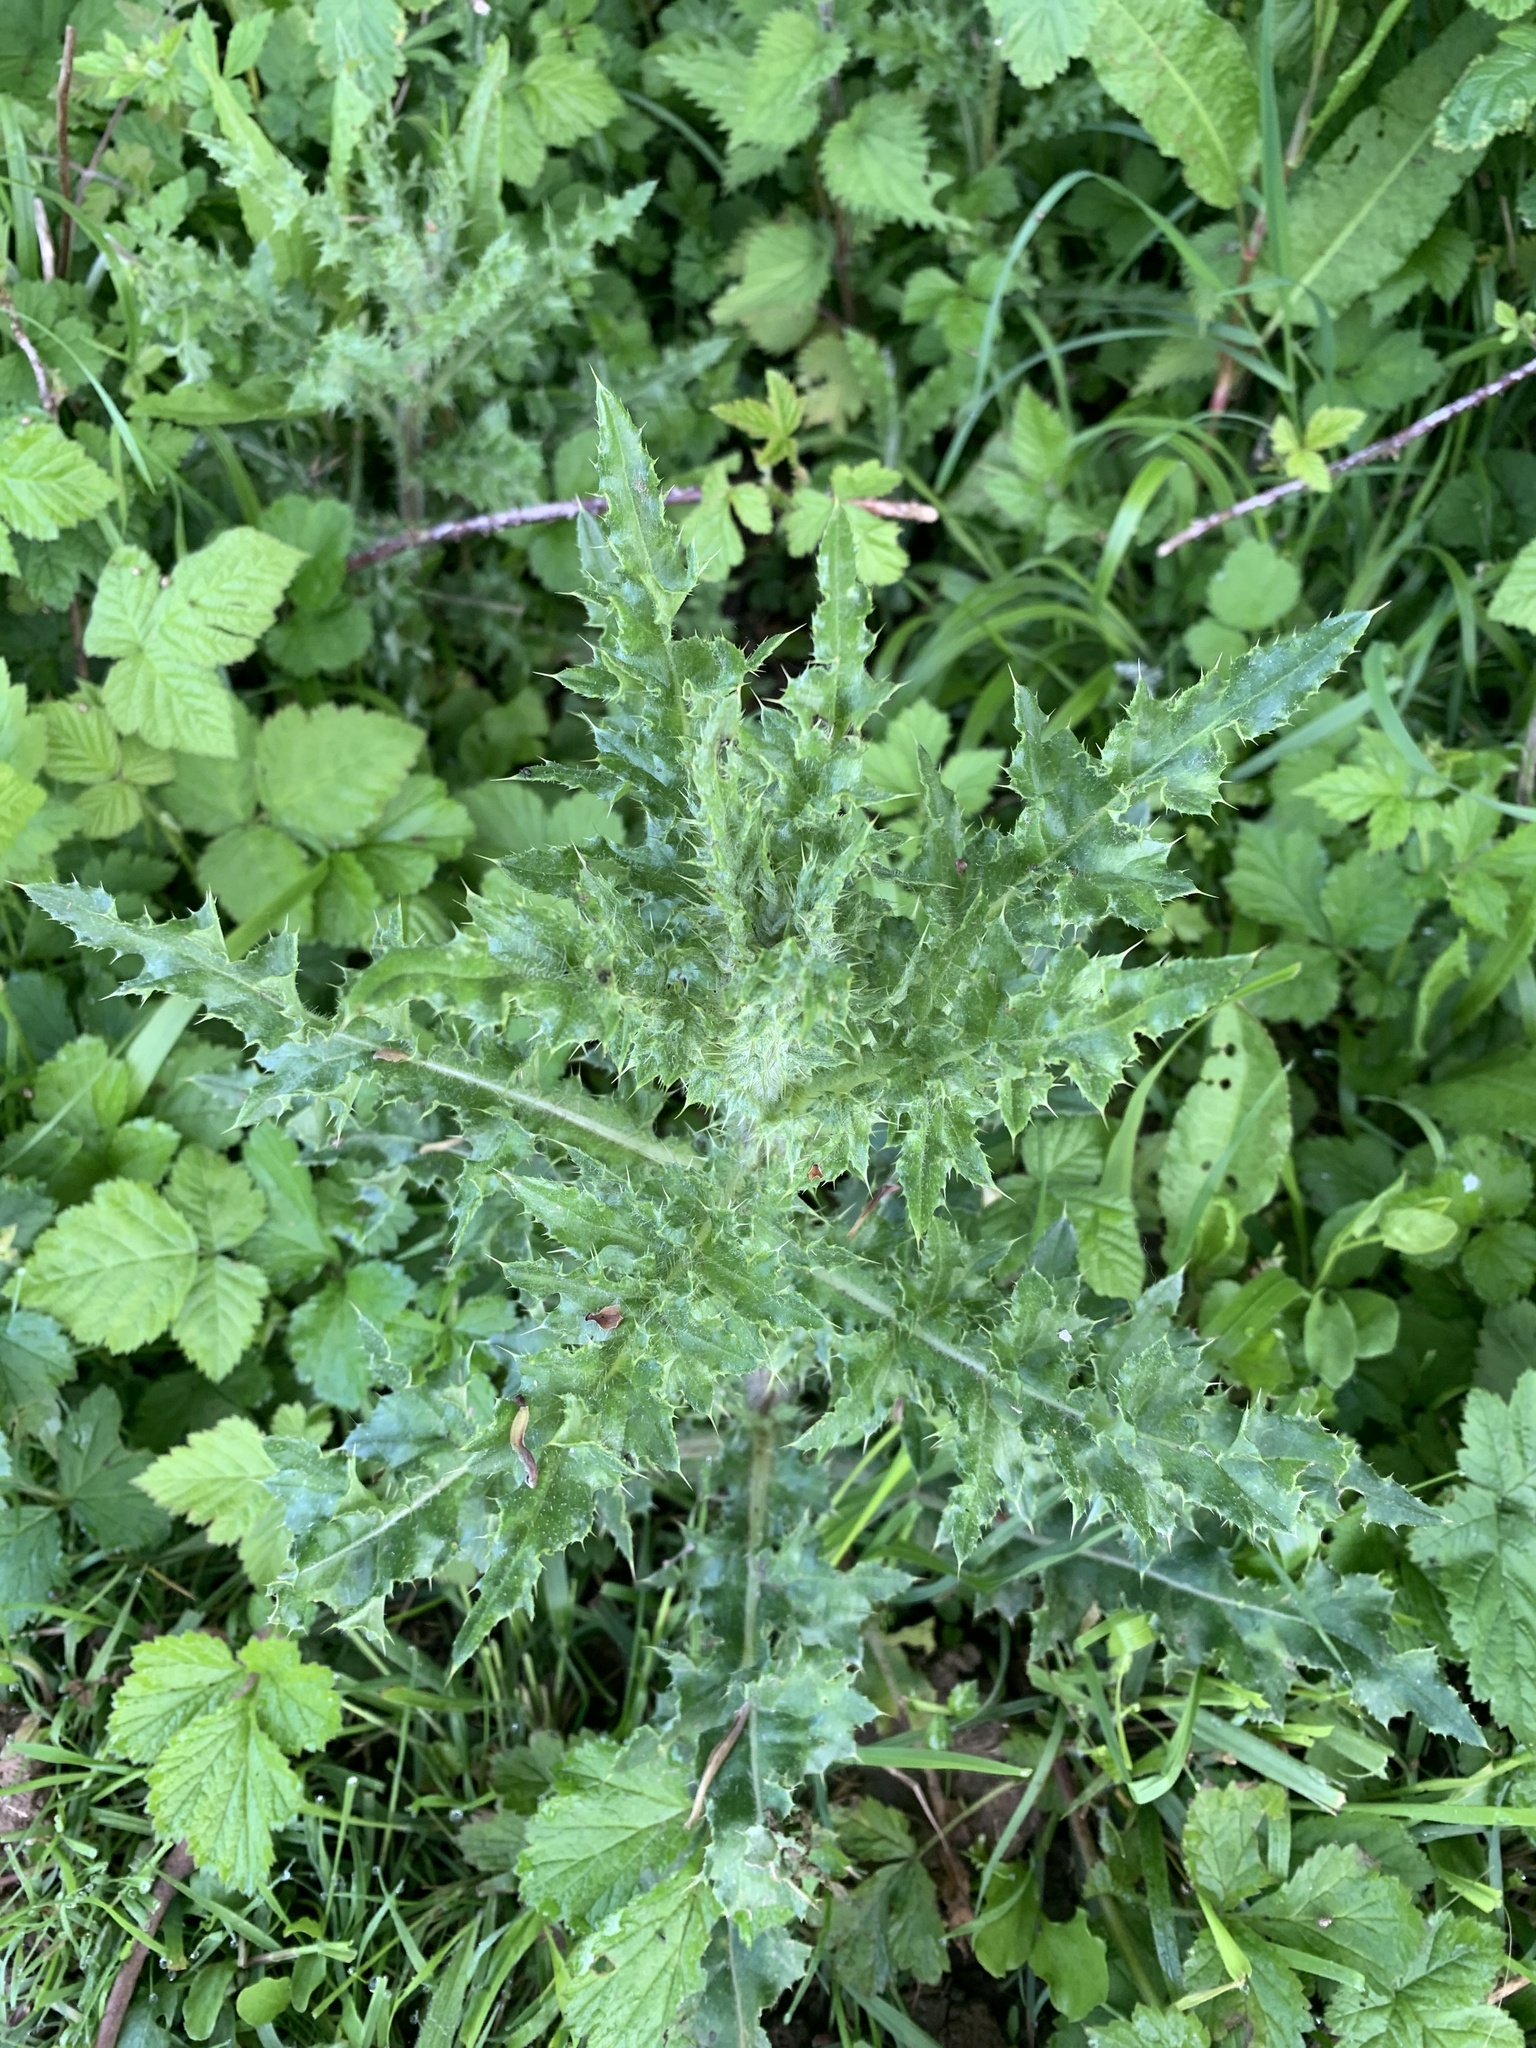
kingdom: Plantae
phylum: Tracheophyta
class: Magnoliopsida
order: Asterales
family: Asteraceae
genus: Cirsium
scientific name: Cirsium arvense
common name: Creeping thistle
